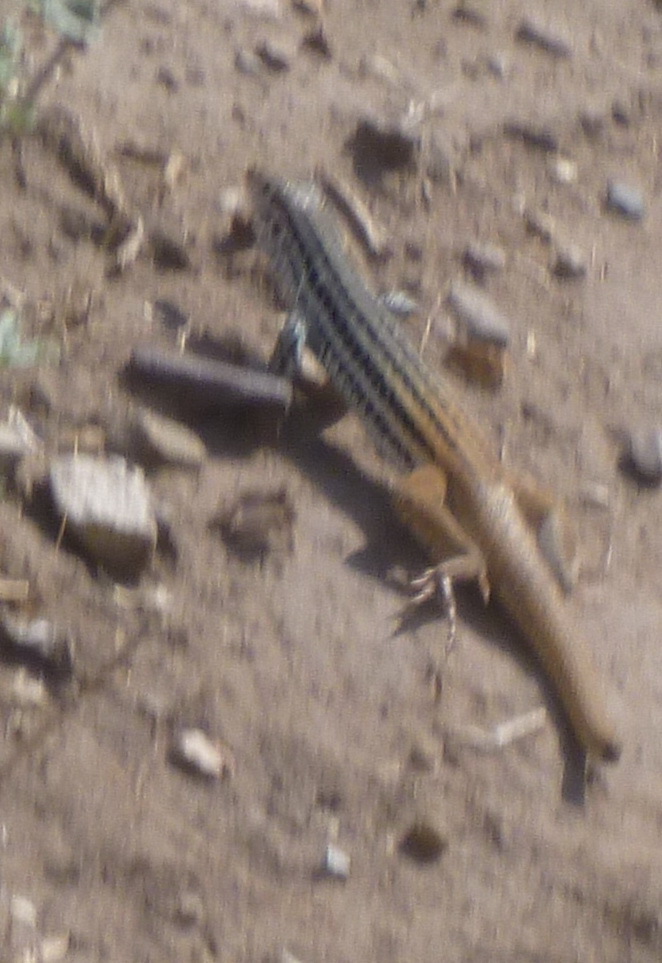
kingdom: Animalia
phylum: Chordata
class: Squamata
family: Teiidae
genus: Aspidoscelis
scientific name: Aspidoscelis scalaris
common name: Rusty-rumped whiptail
